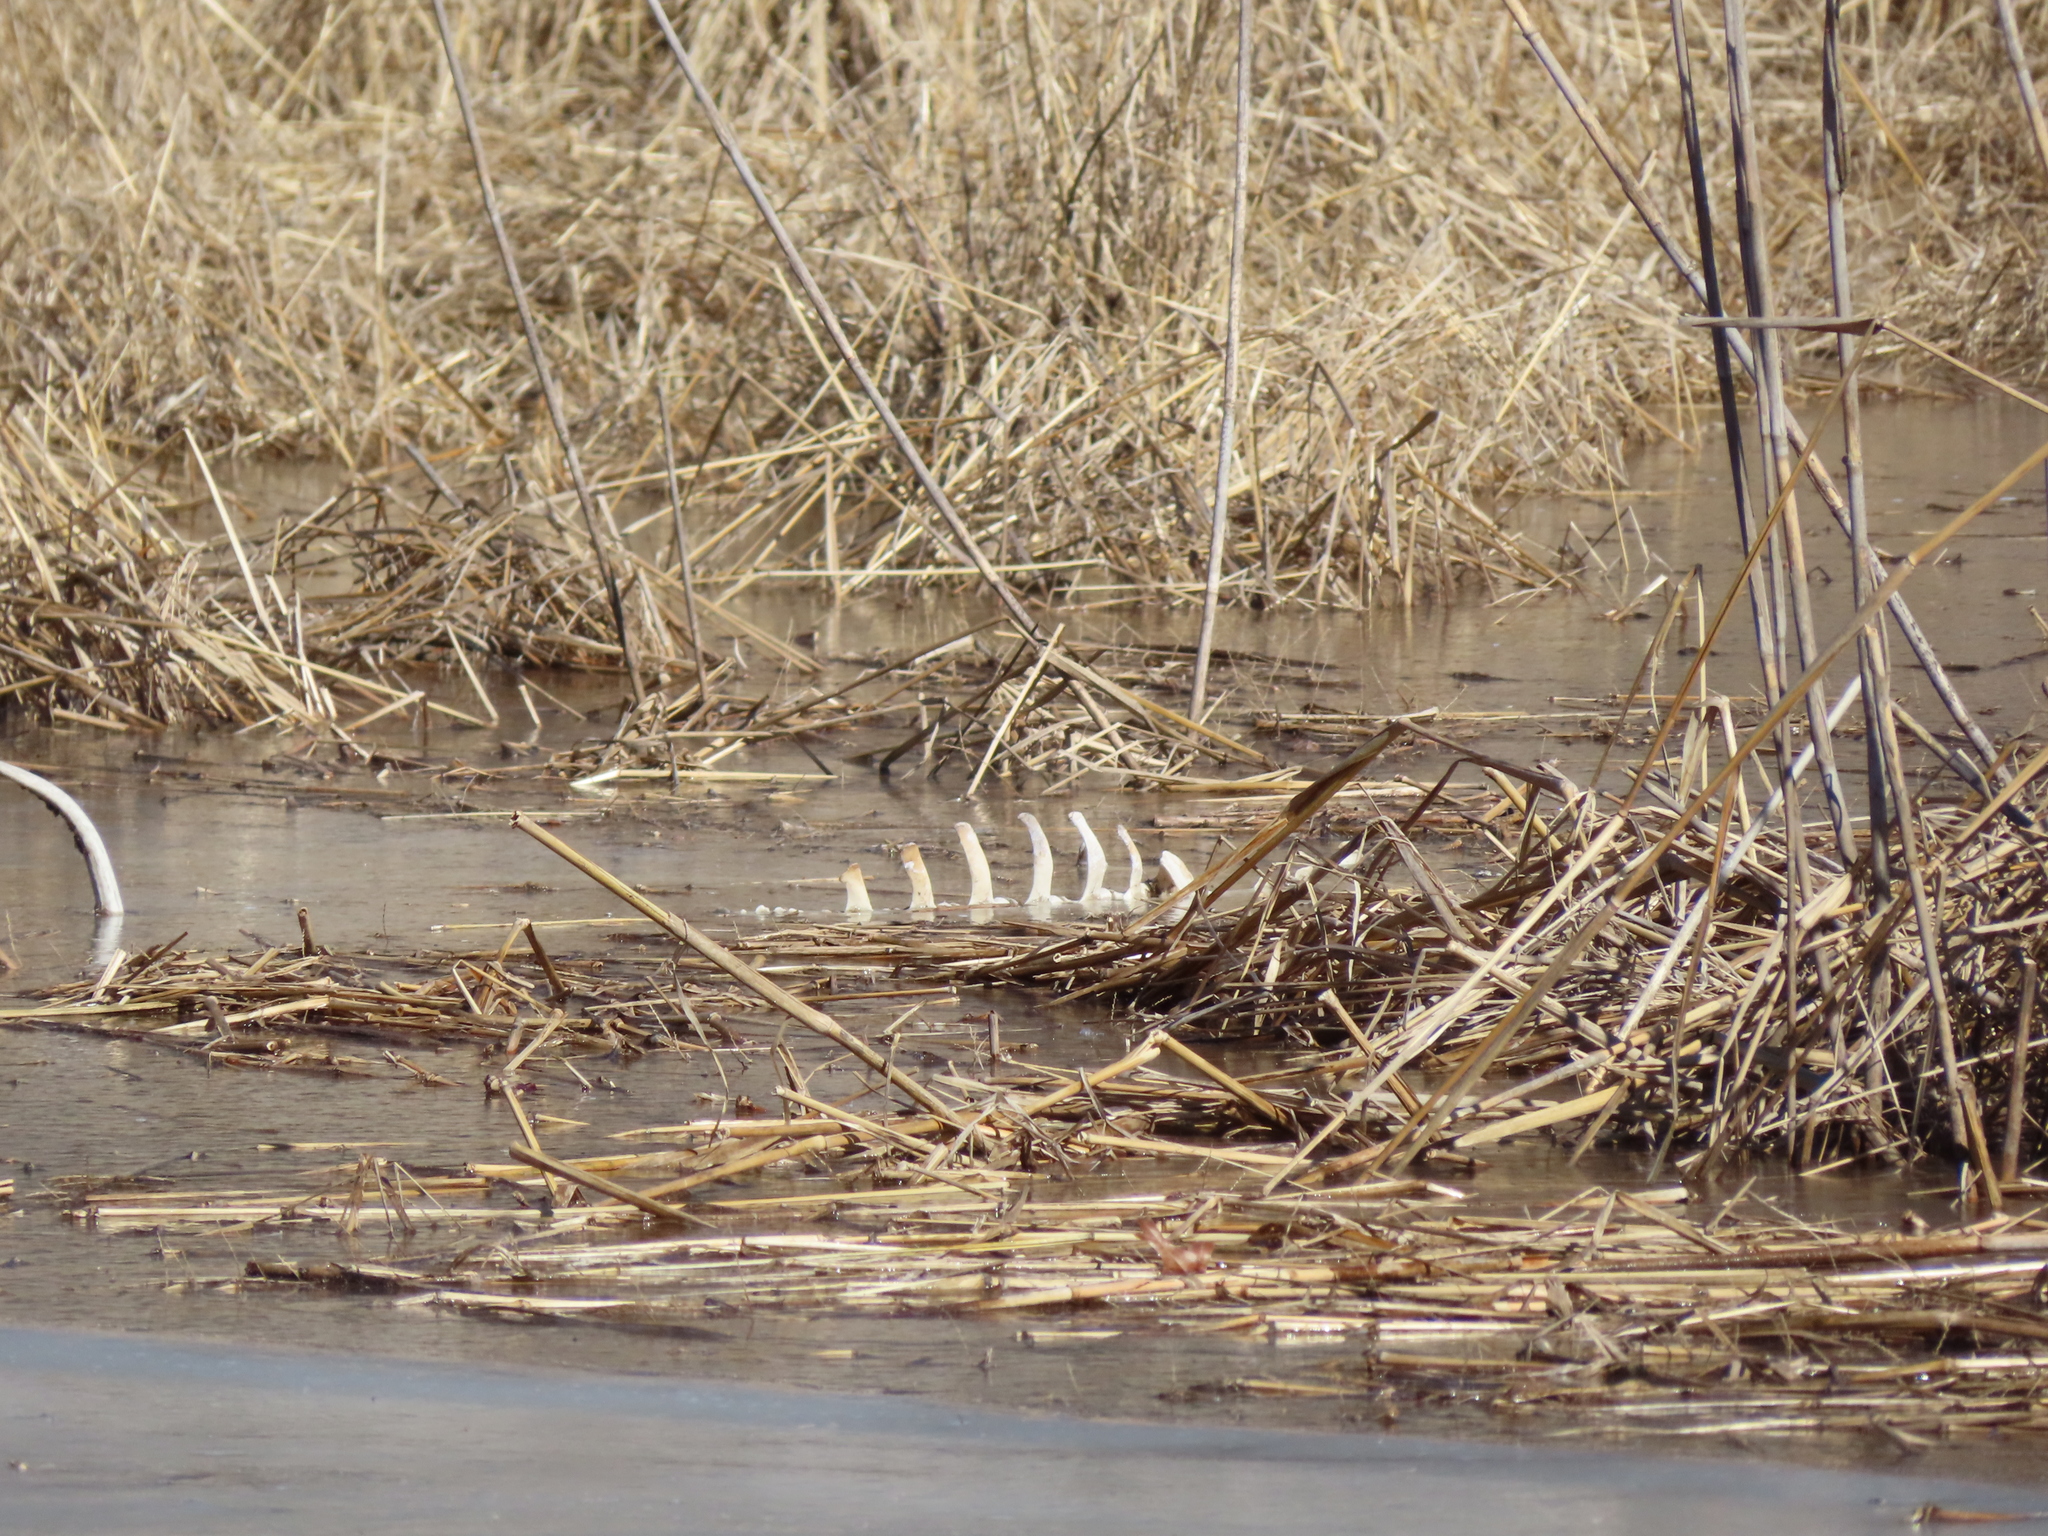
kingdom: Animalia
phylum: Chordata
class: Mammalia
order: Artiodactyla
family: Cervidae
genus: Odocoileus
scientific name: Odocoileus virginianus
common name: White-tailed deer
